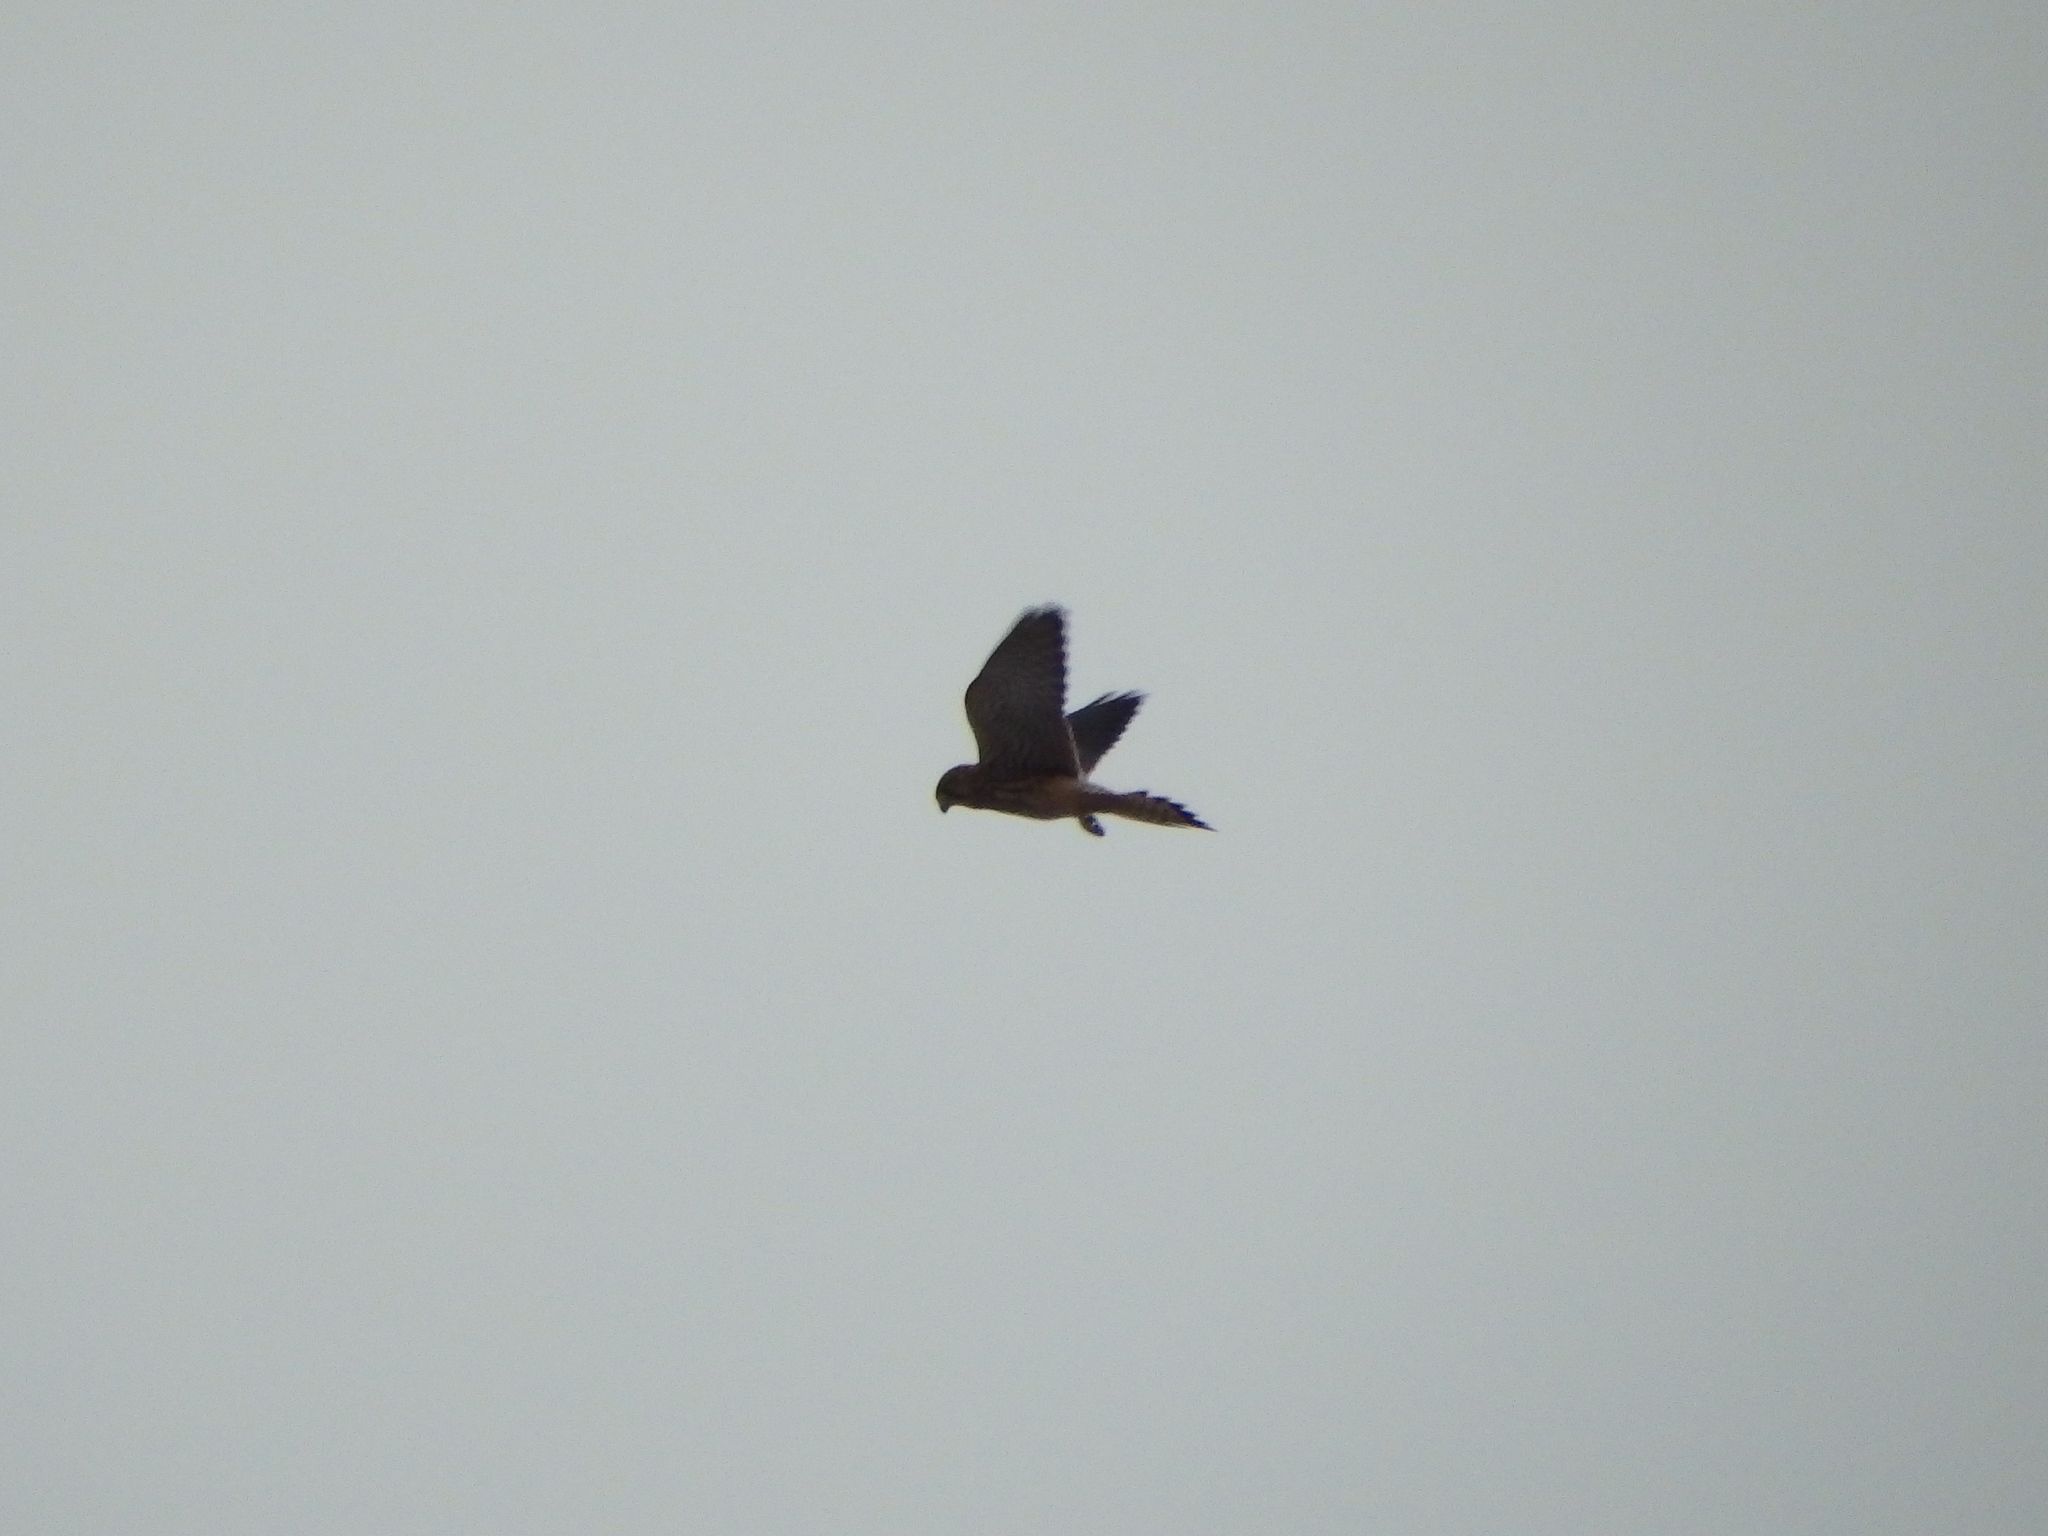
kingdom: Animalia
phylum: Chordata
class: Aves
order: Falconiformes
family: Falconidae
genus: Falco
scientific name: Falco tinnunculus
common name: Common kestrel
